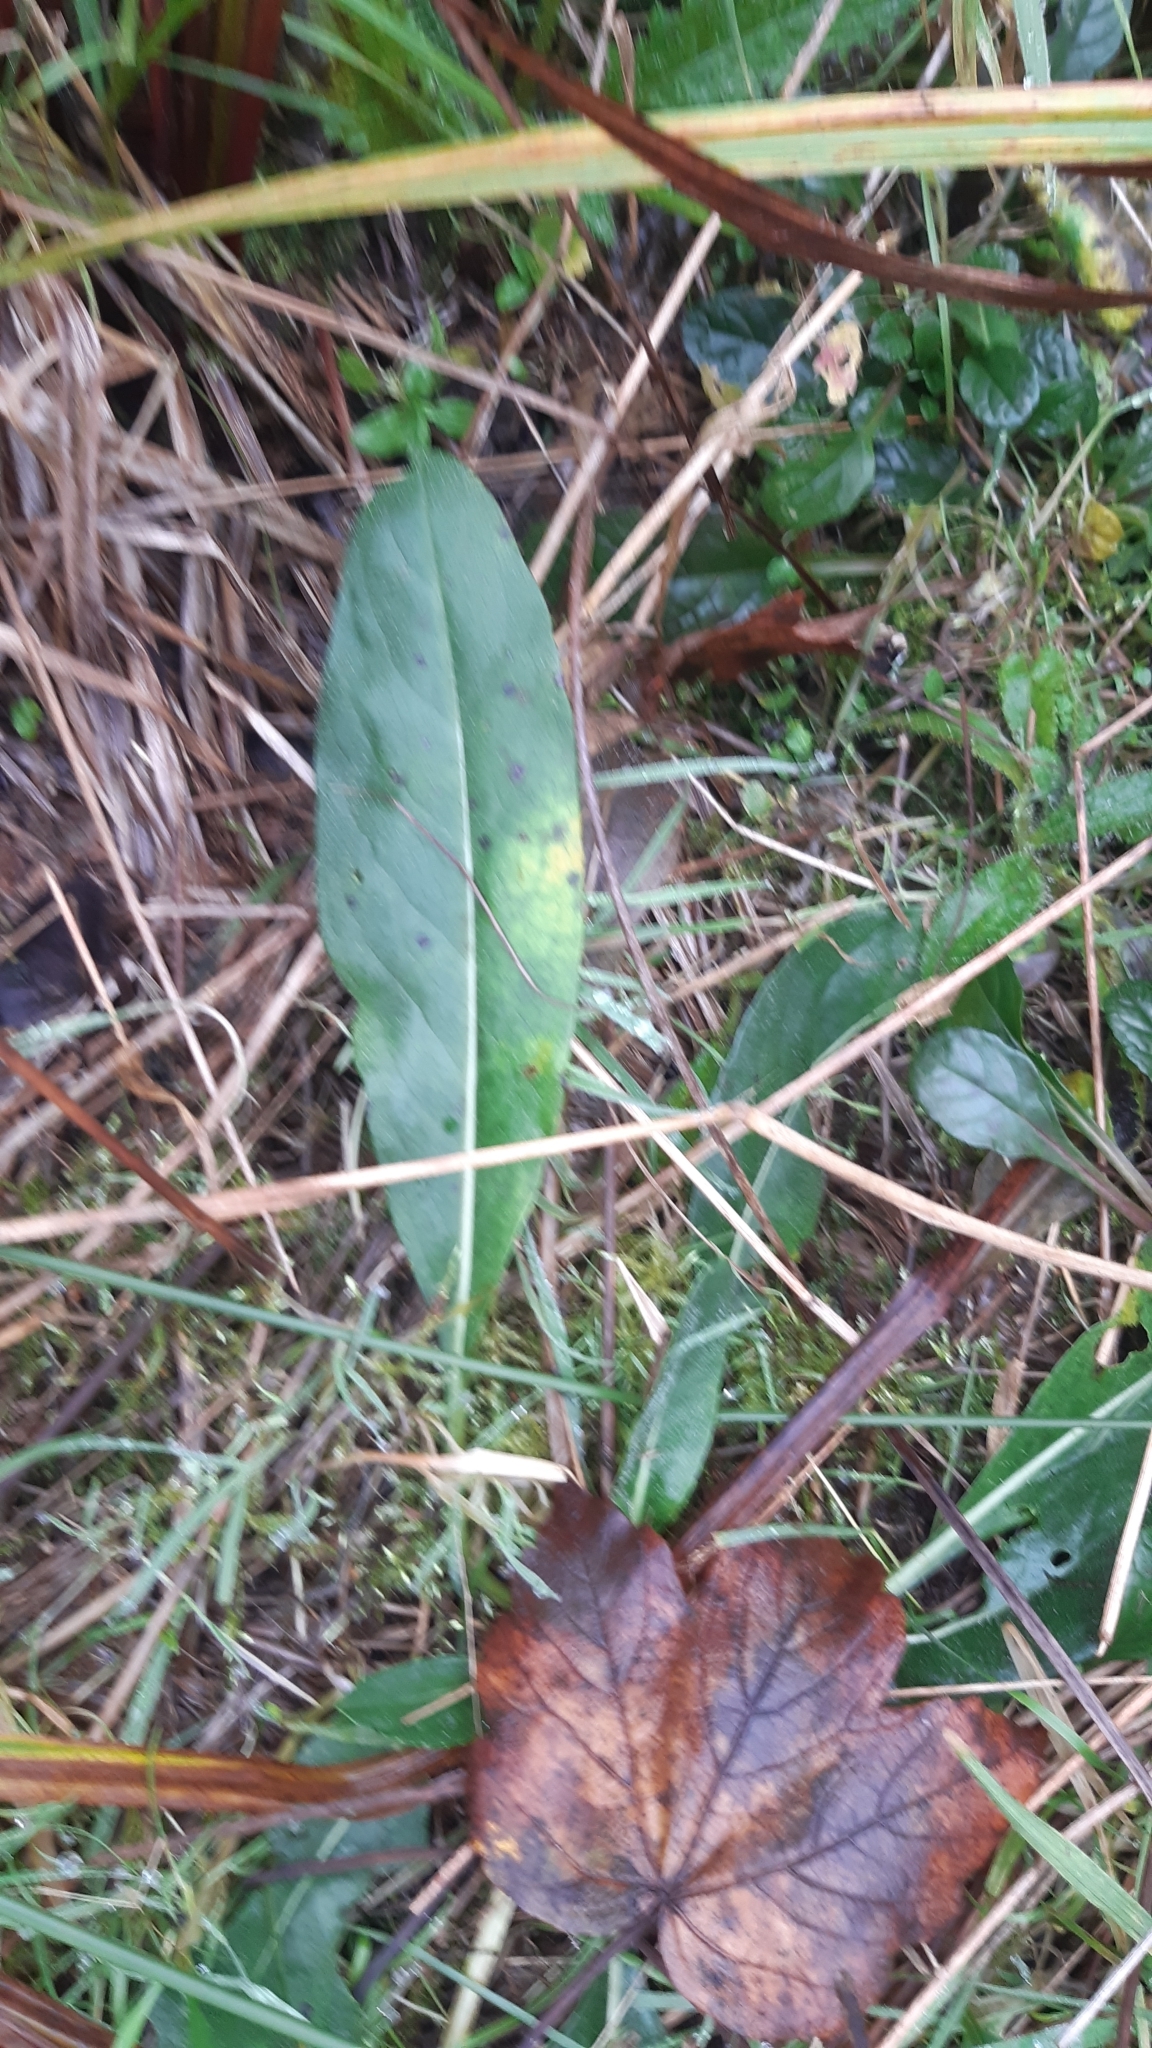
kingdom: Plantae
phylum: Tracheophyta
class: Magnoliopsida
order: Dipsacales
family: Caprifoliaceae
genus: Succisa
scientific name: Succisa pratensis
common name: Devil's-bit
